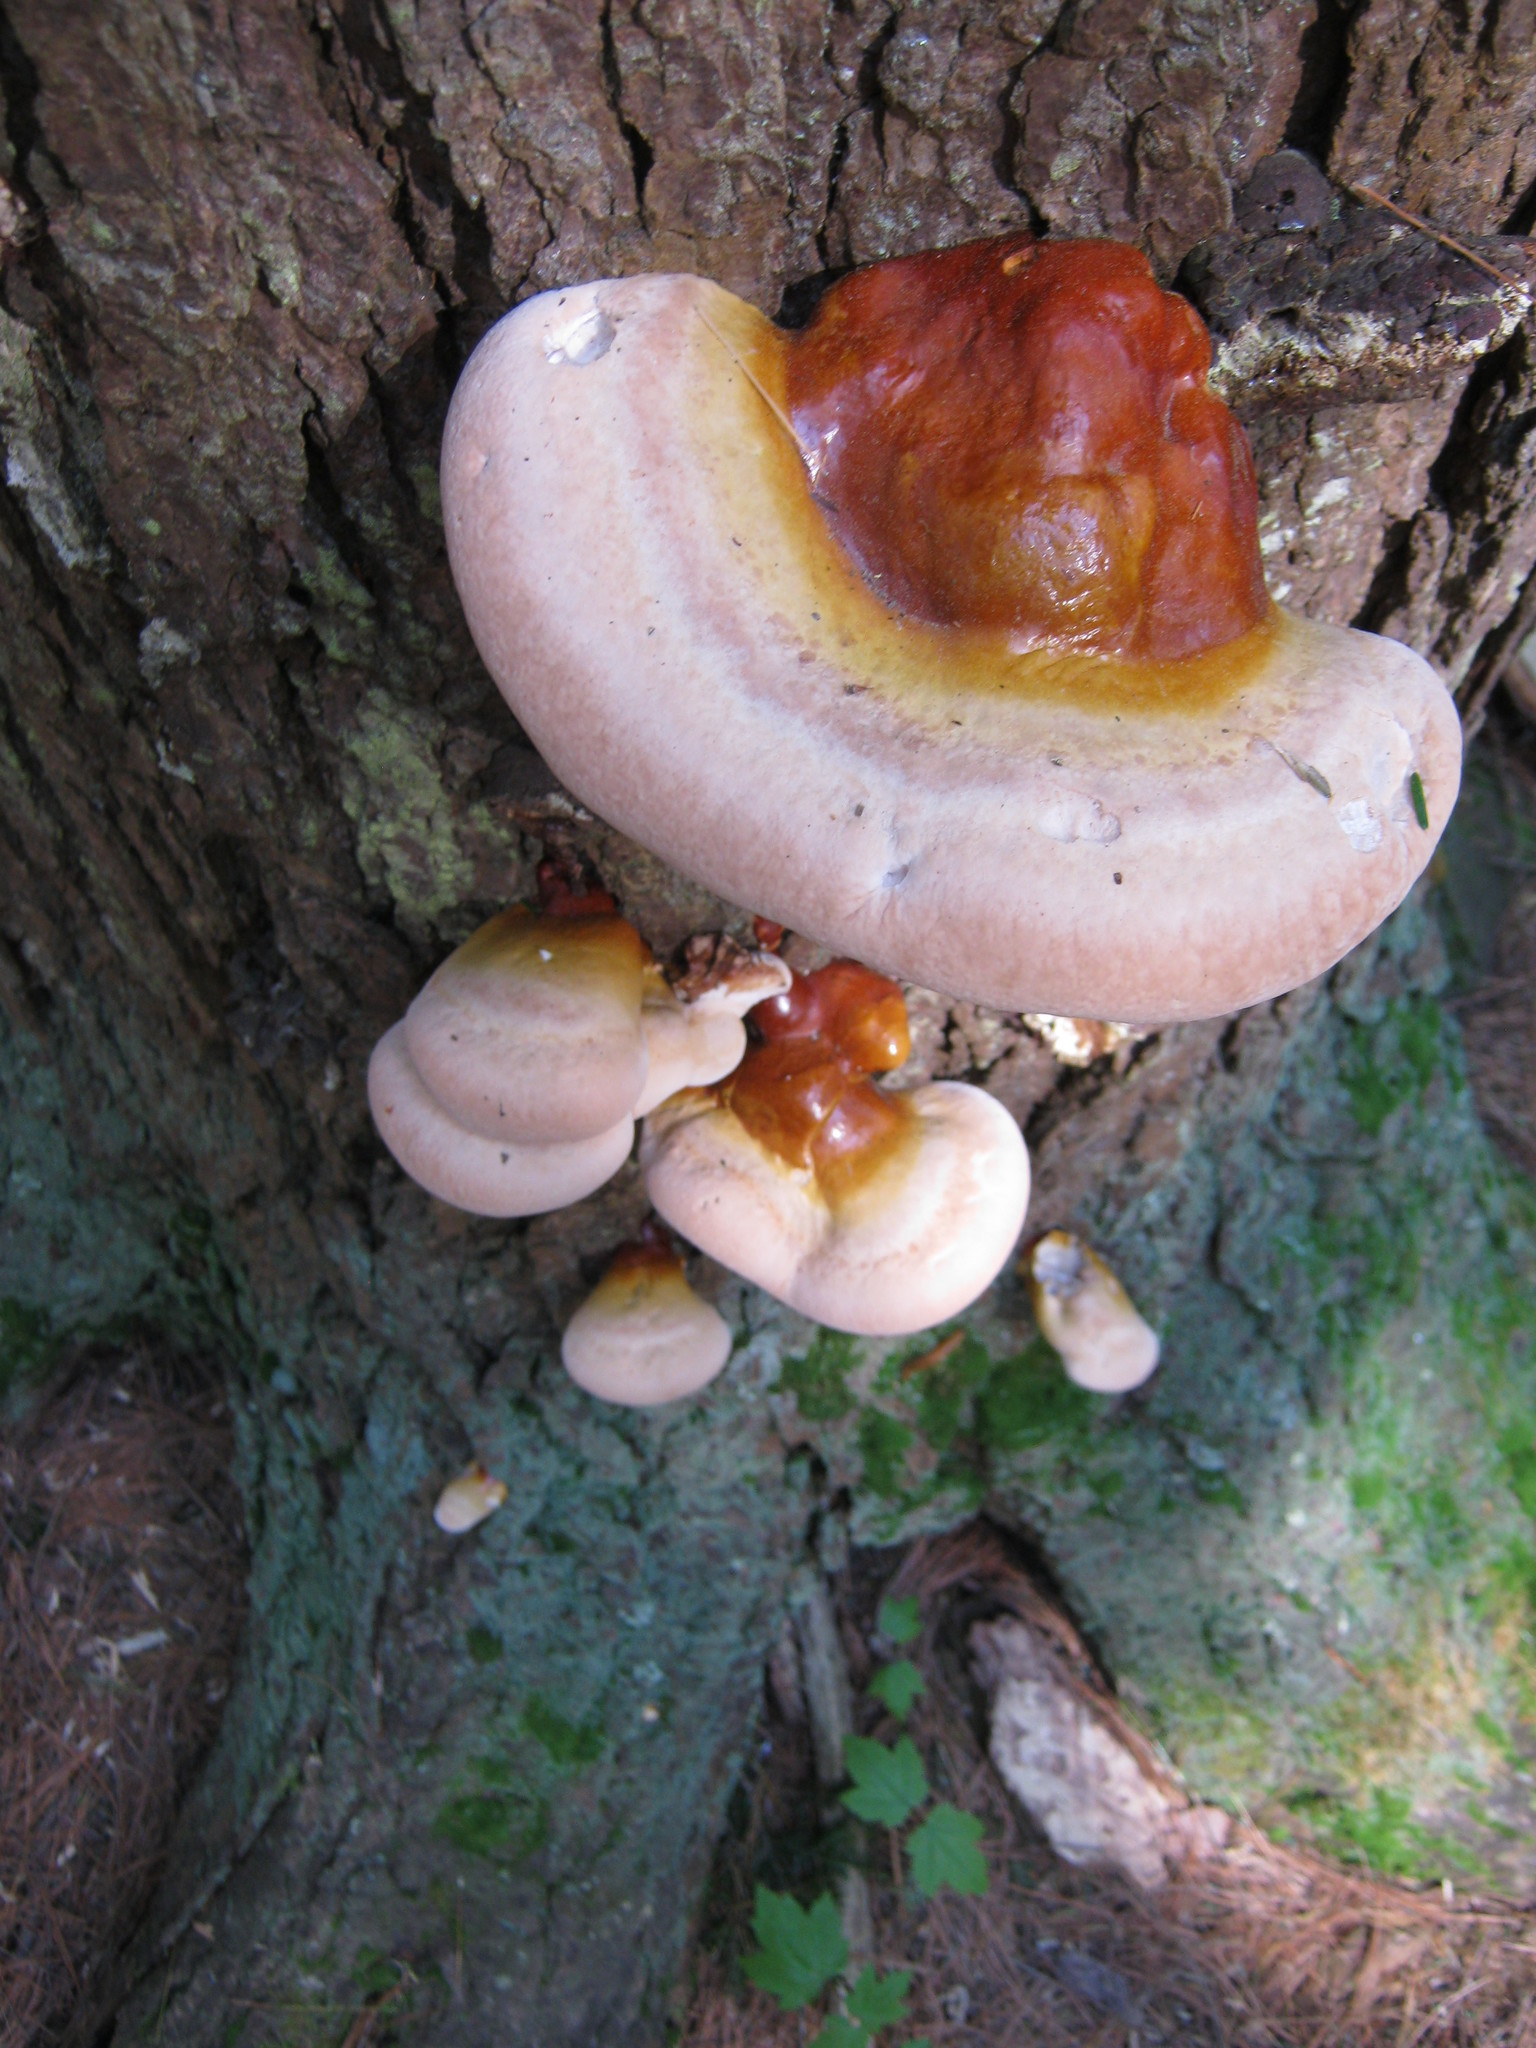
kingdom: Fungi
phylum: Basidiomycota
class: Agaricomycetes
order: Polyporales
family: Polyporaceae
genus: Ganoderma
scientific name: Ganoderma tsugae
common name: Hemlock varnish shelf
